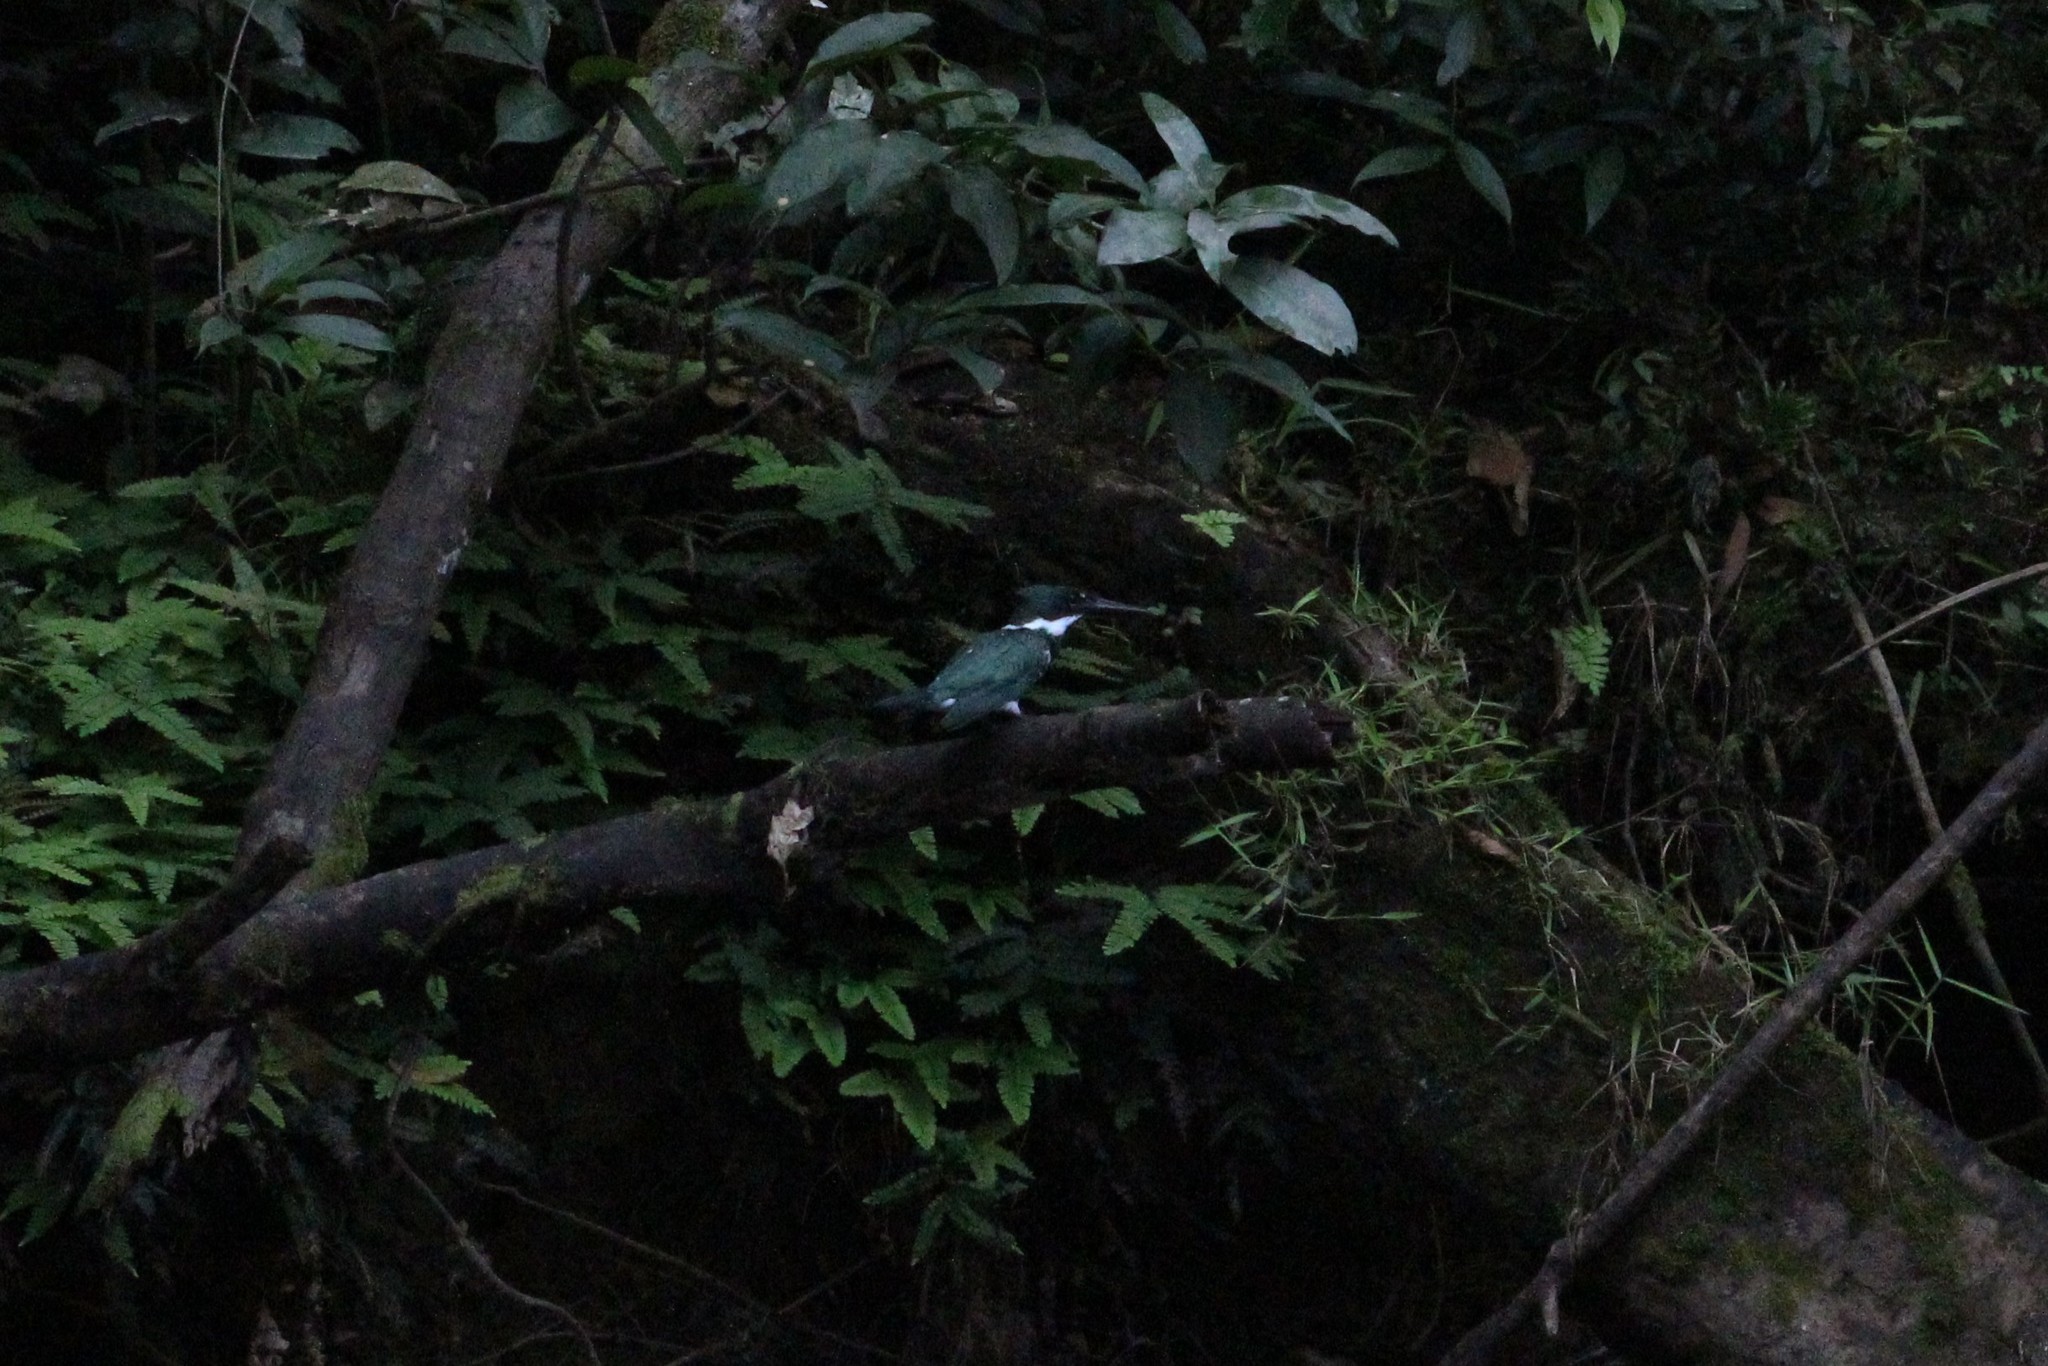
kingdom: Animalia
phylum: Chordata
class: Aves
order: Coraciiformes
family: Alcedinidae
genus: Chloroceryle
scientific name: Chloroceryle amazona
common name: Amazon kingfisher
